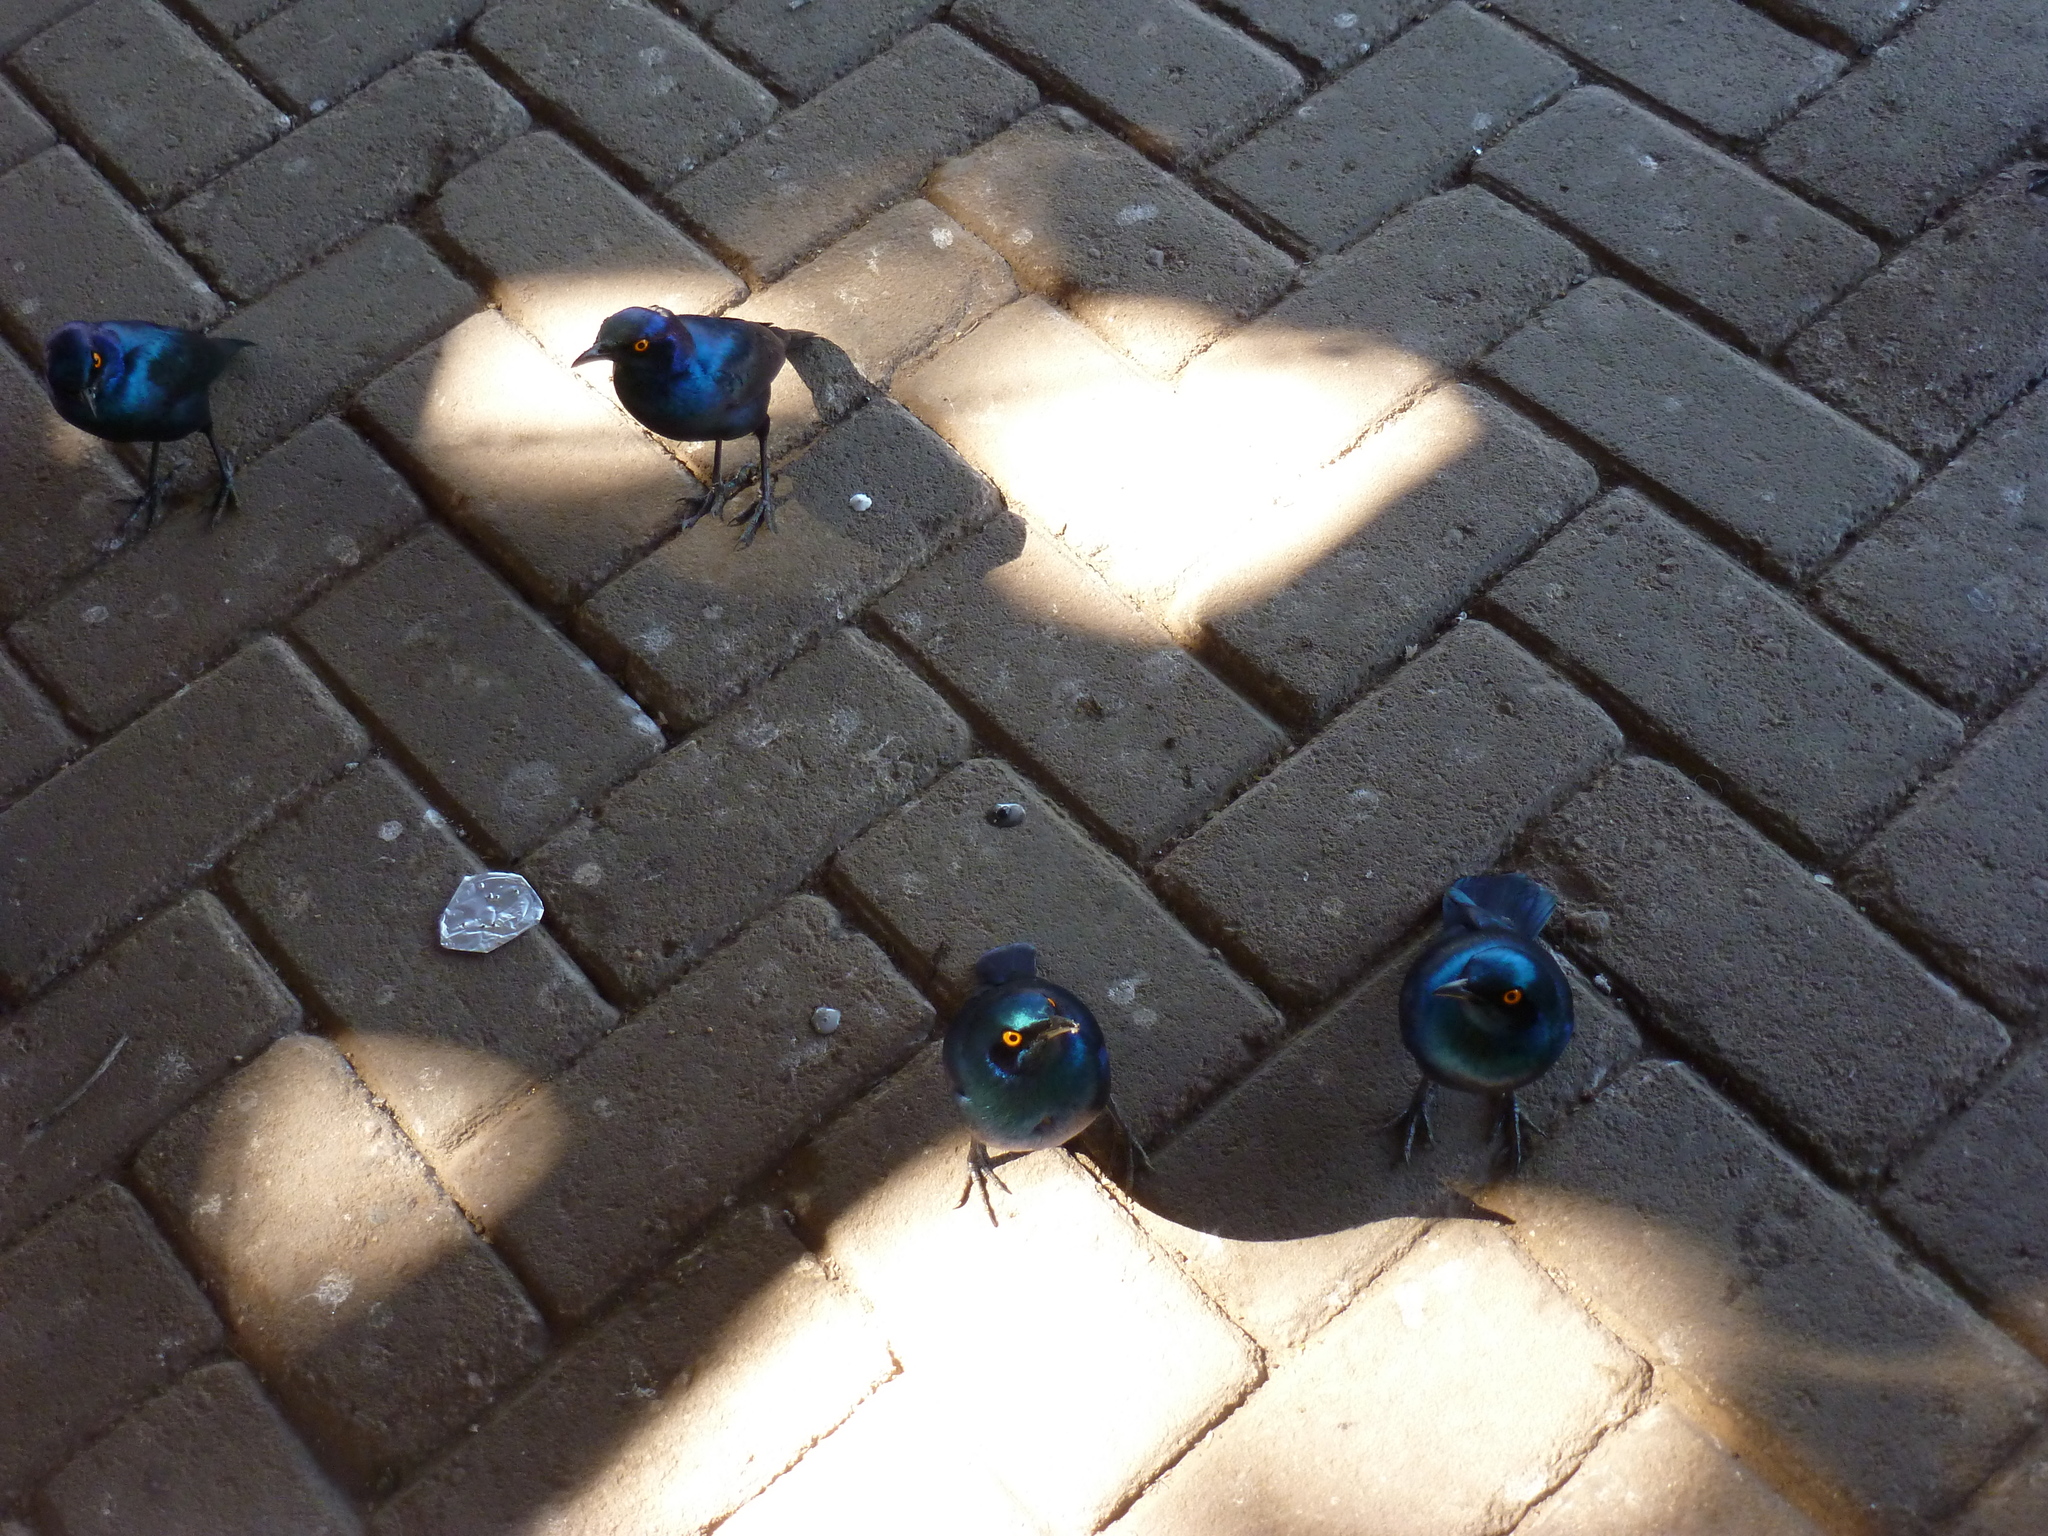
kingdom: Animalia
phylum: Chordata
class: Aves
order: Passeriformes
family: Sturnidae
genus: Lamprotornis
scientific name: Lamprotornis nitens
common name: Cape starling
